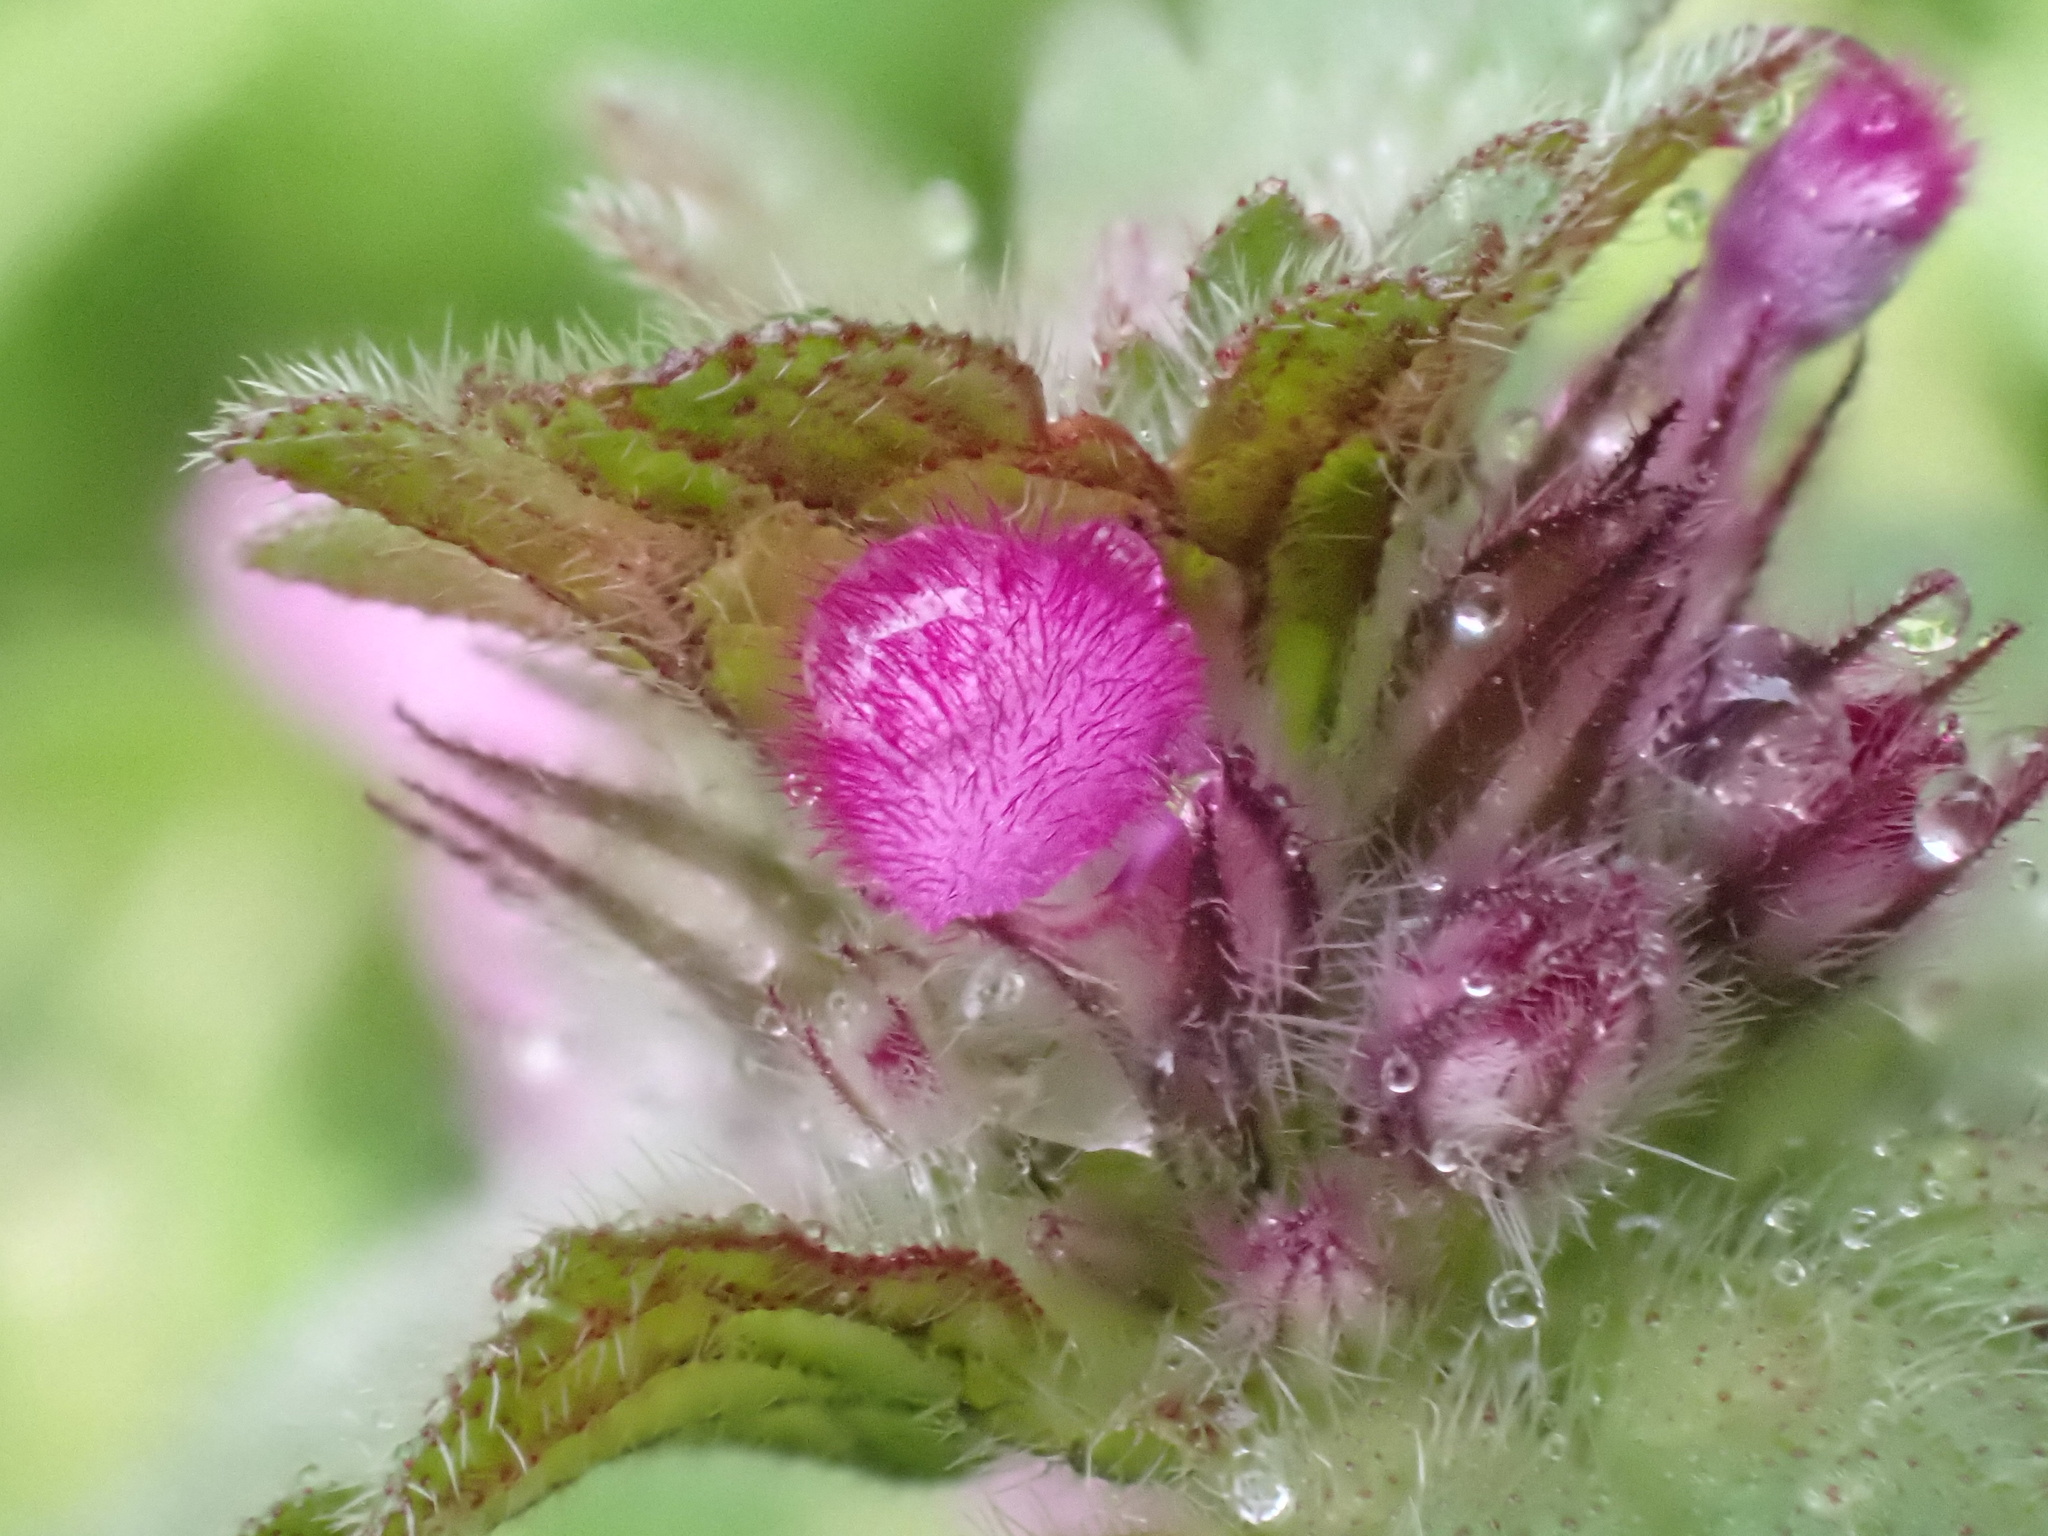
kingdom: Plantae
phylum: Tracheophyta
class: Magnoliopsida
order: Lamiales
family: Lamiaceae
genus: Lamium
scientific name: Lamium amplexicaule
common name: Henbit dead-nettle
